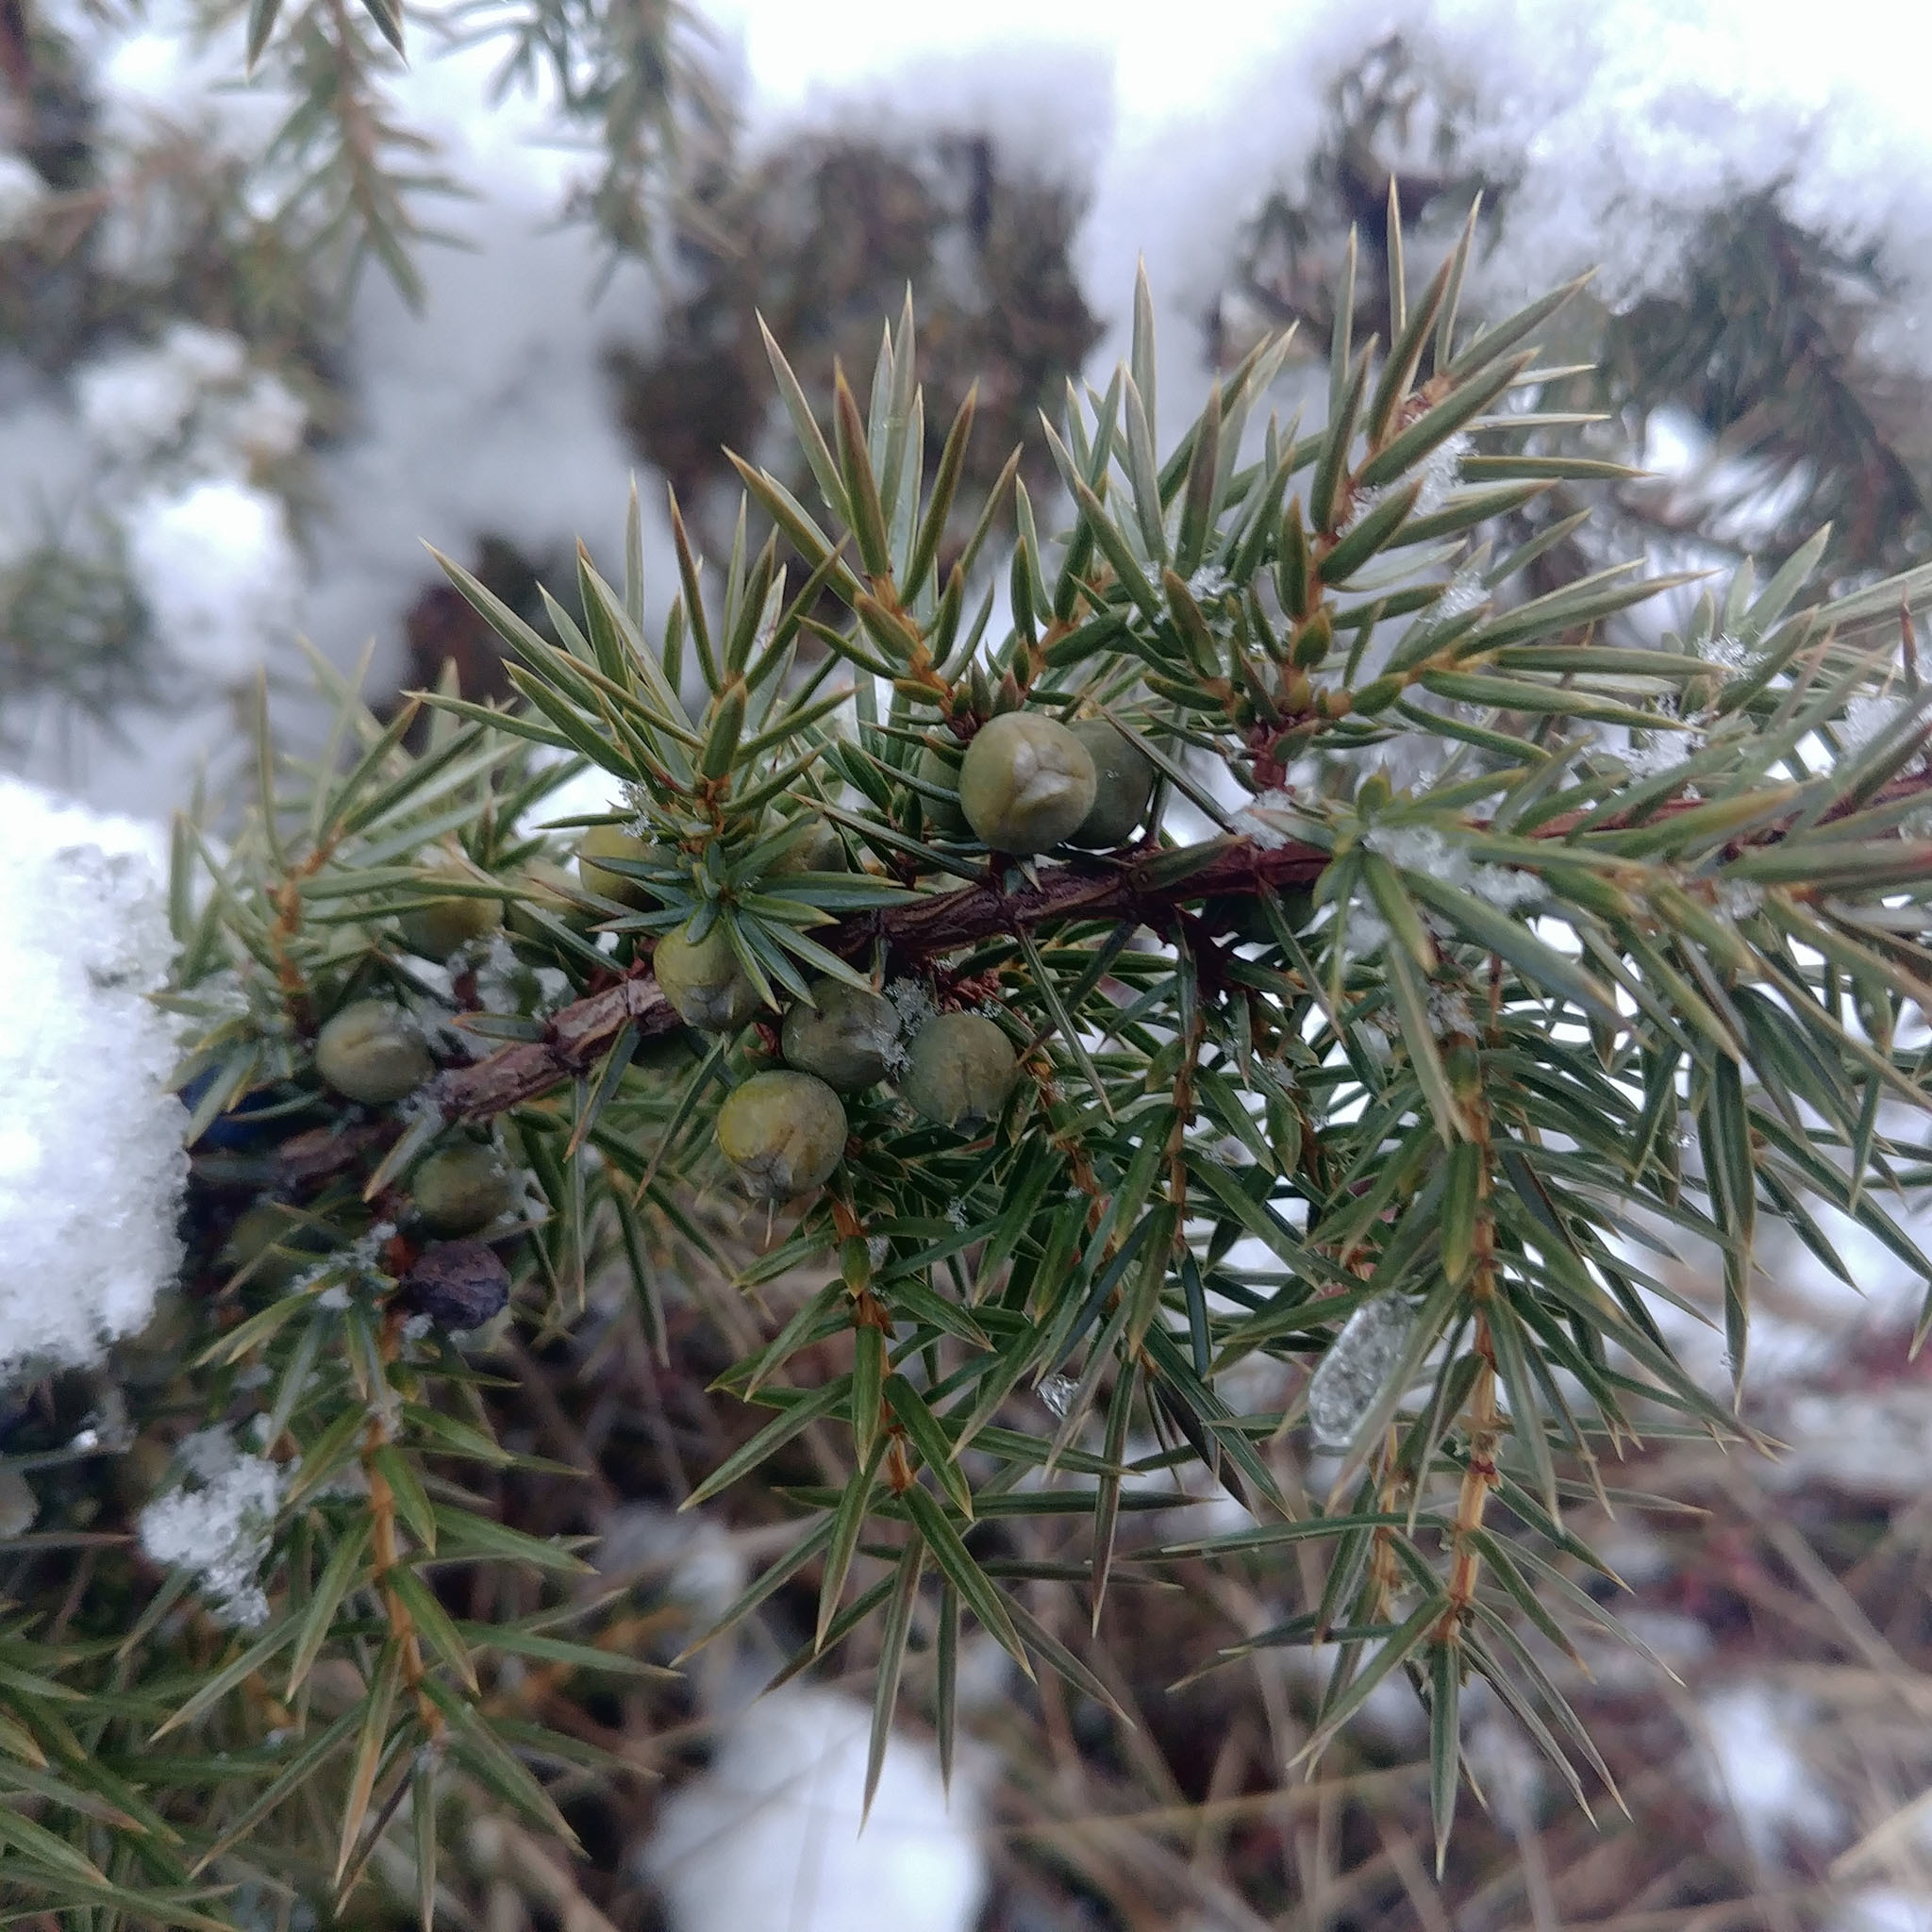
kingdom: Plantae
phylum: Tracheophyta
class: Pinopsida
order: Pinales
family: Cupressaceae
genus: Juniperus
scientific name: Juniperus communis
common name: Common juniper
